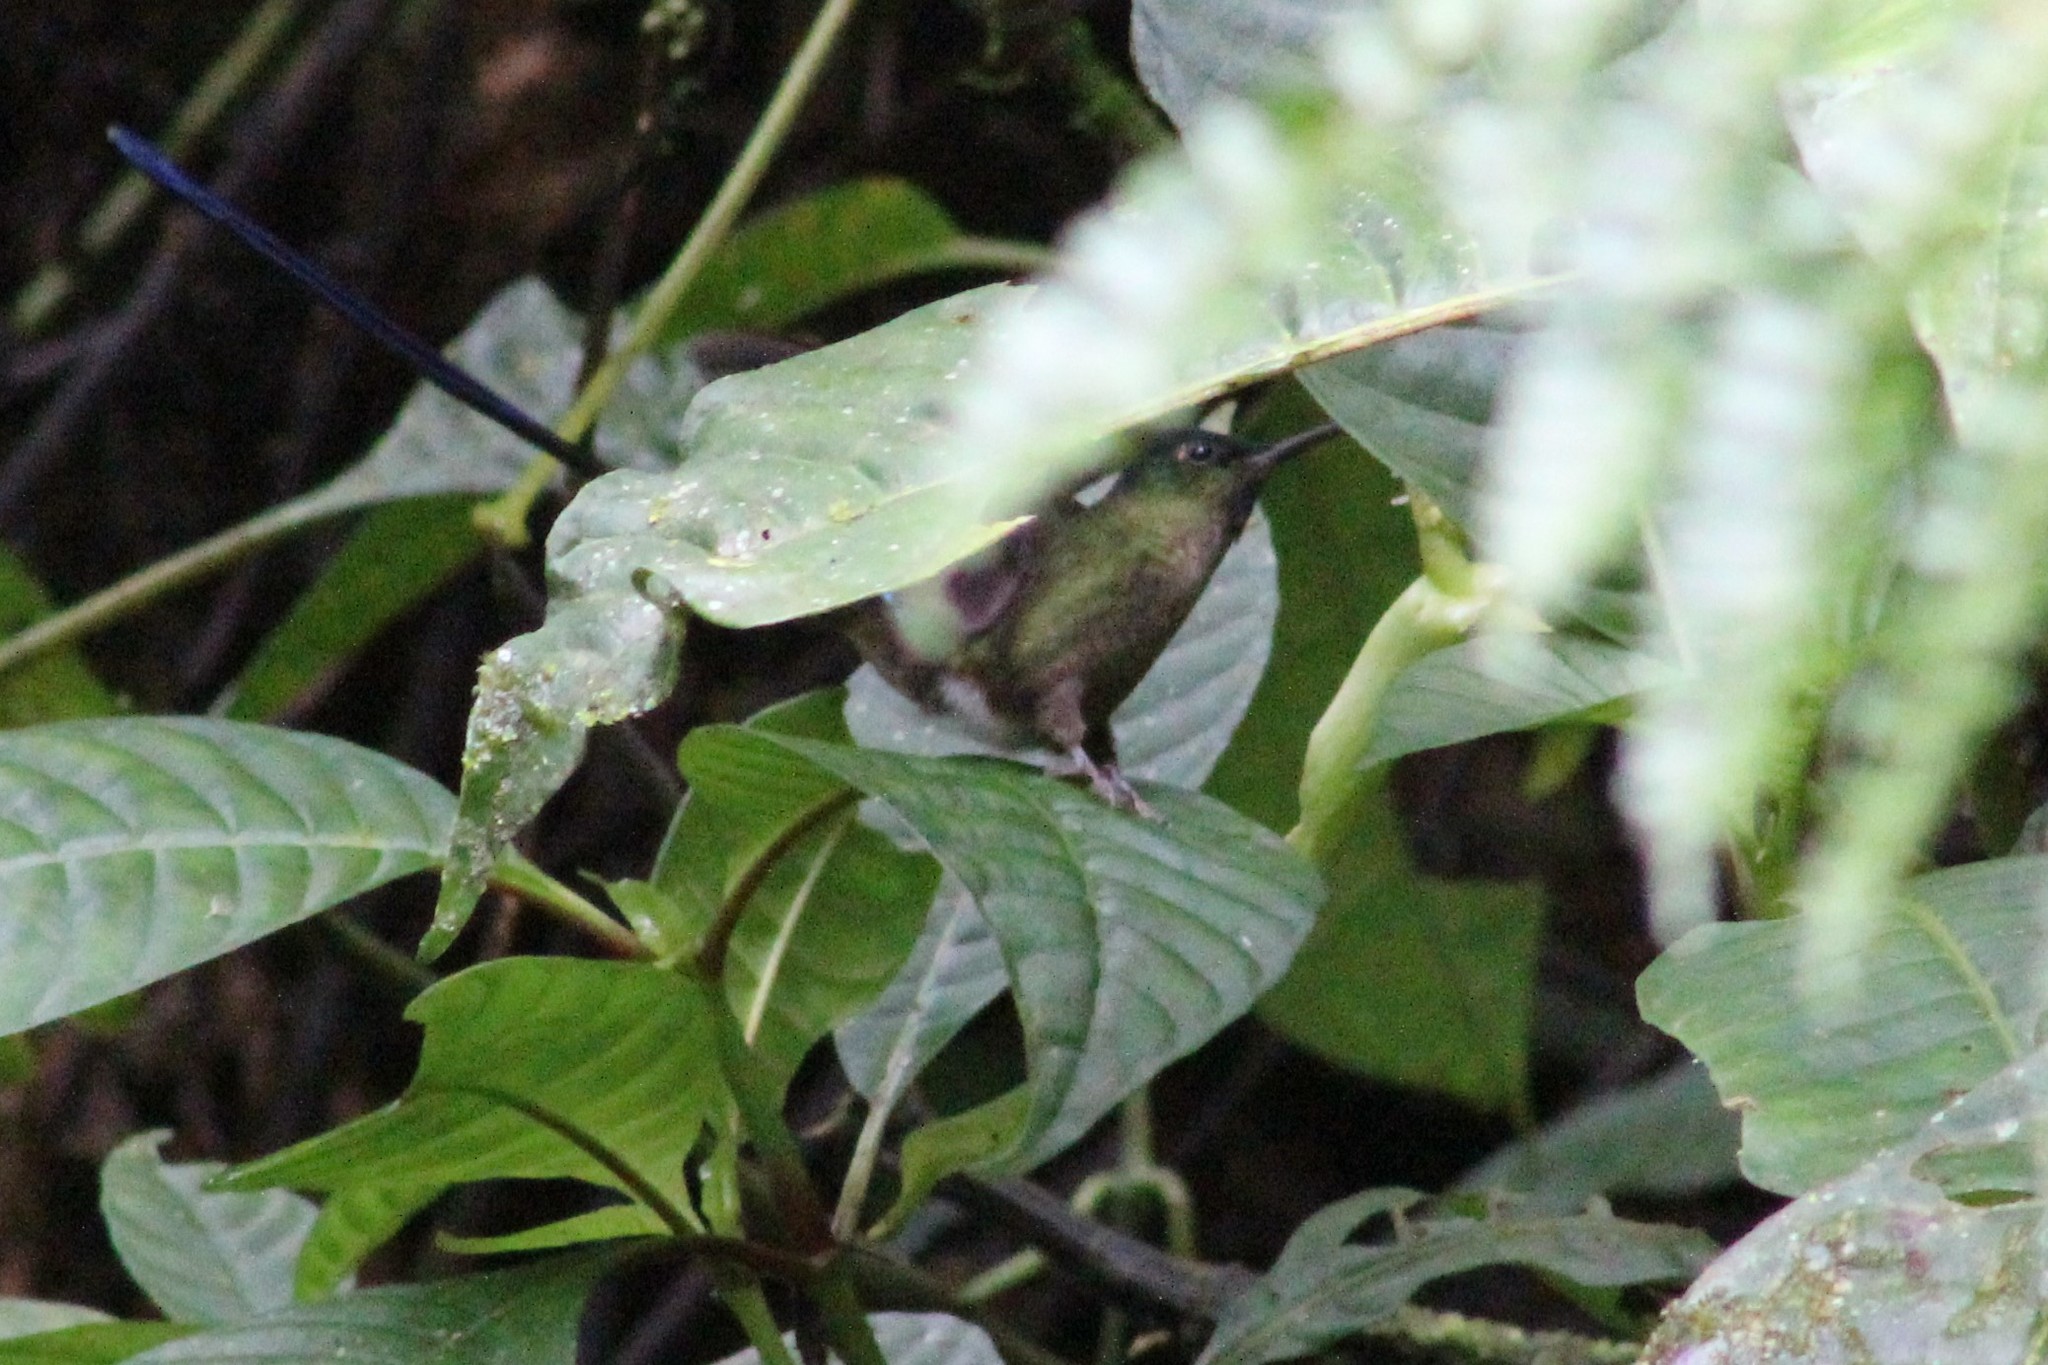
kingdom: Animalia
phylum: Chordata
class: Aves
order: Apodiformes
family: Trochilidae
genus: Aglaiocercus
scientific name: Aglaiocercus coelestis
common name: Violet-tailed sylph
